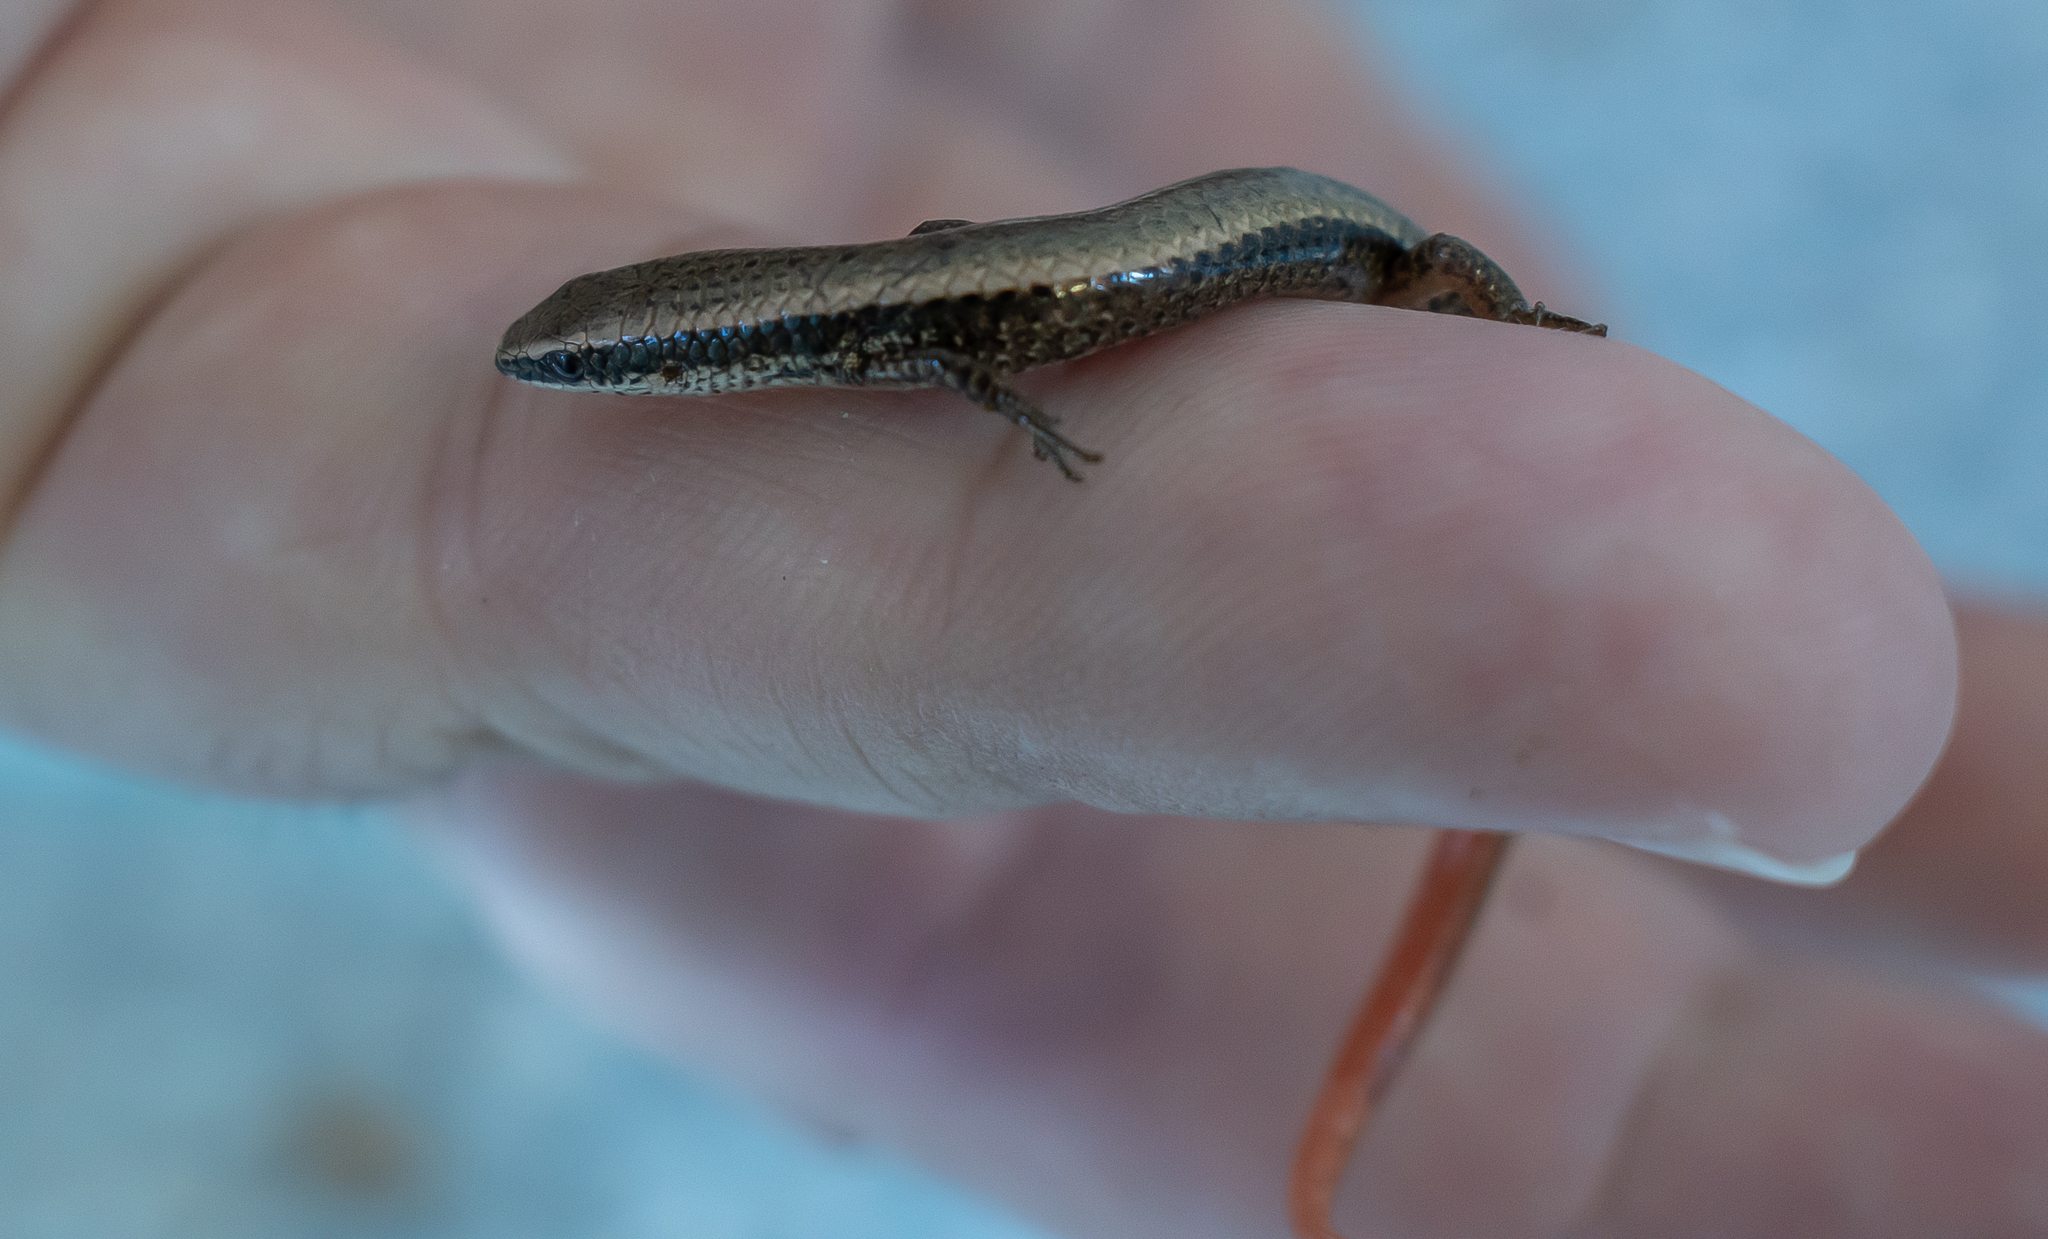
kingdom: Animalia
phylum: Chordata
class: Squamata
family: Gymnophthalmidae
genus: Gymnophthalmus
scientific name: Gymnophthalmus vanzoi
